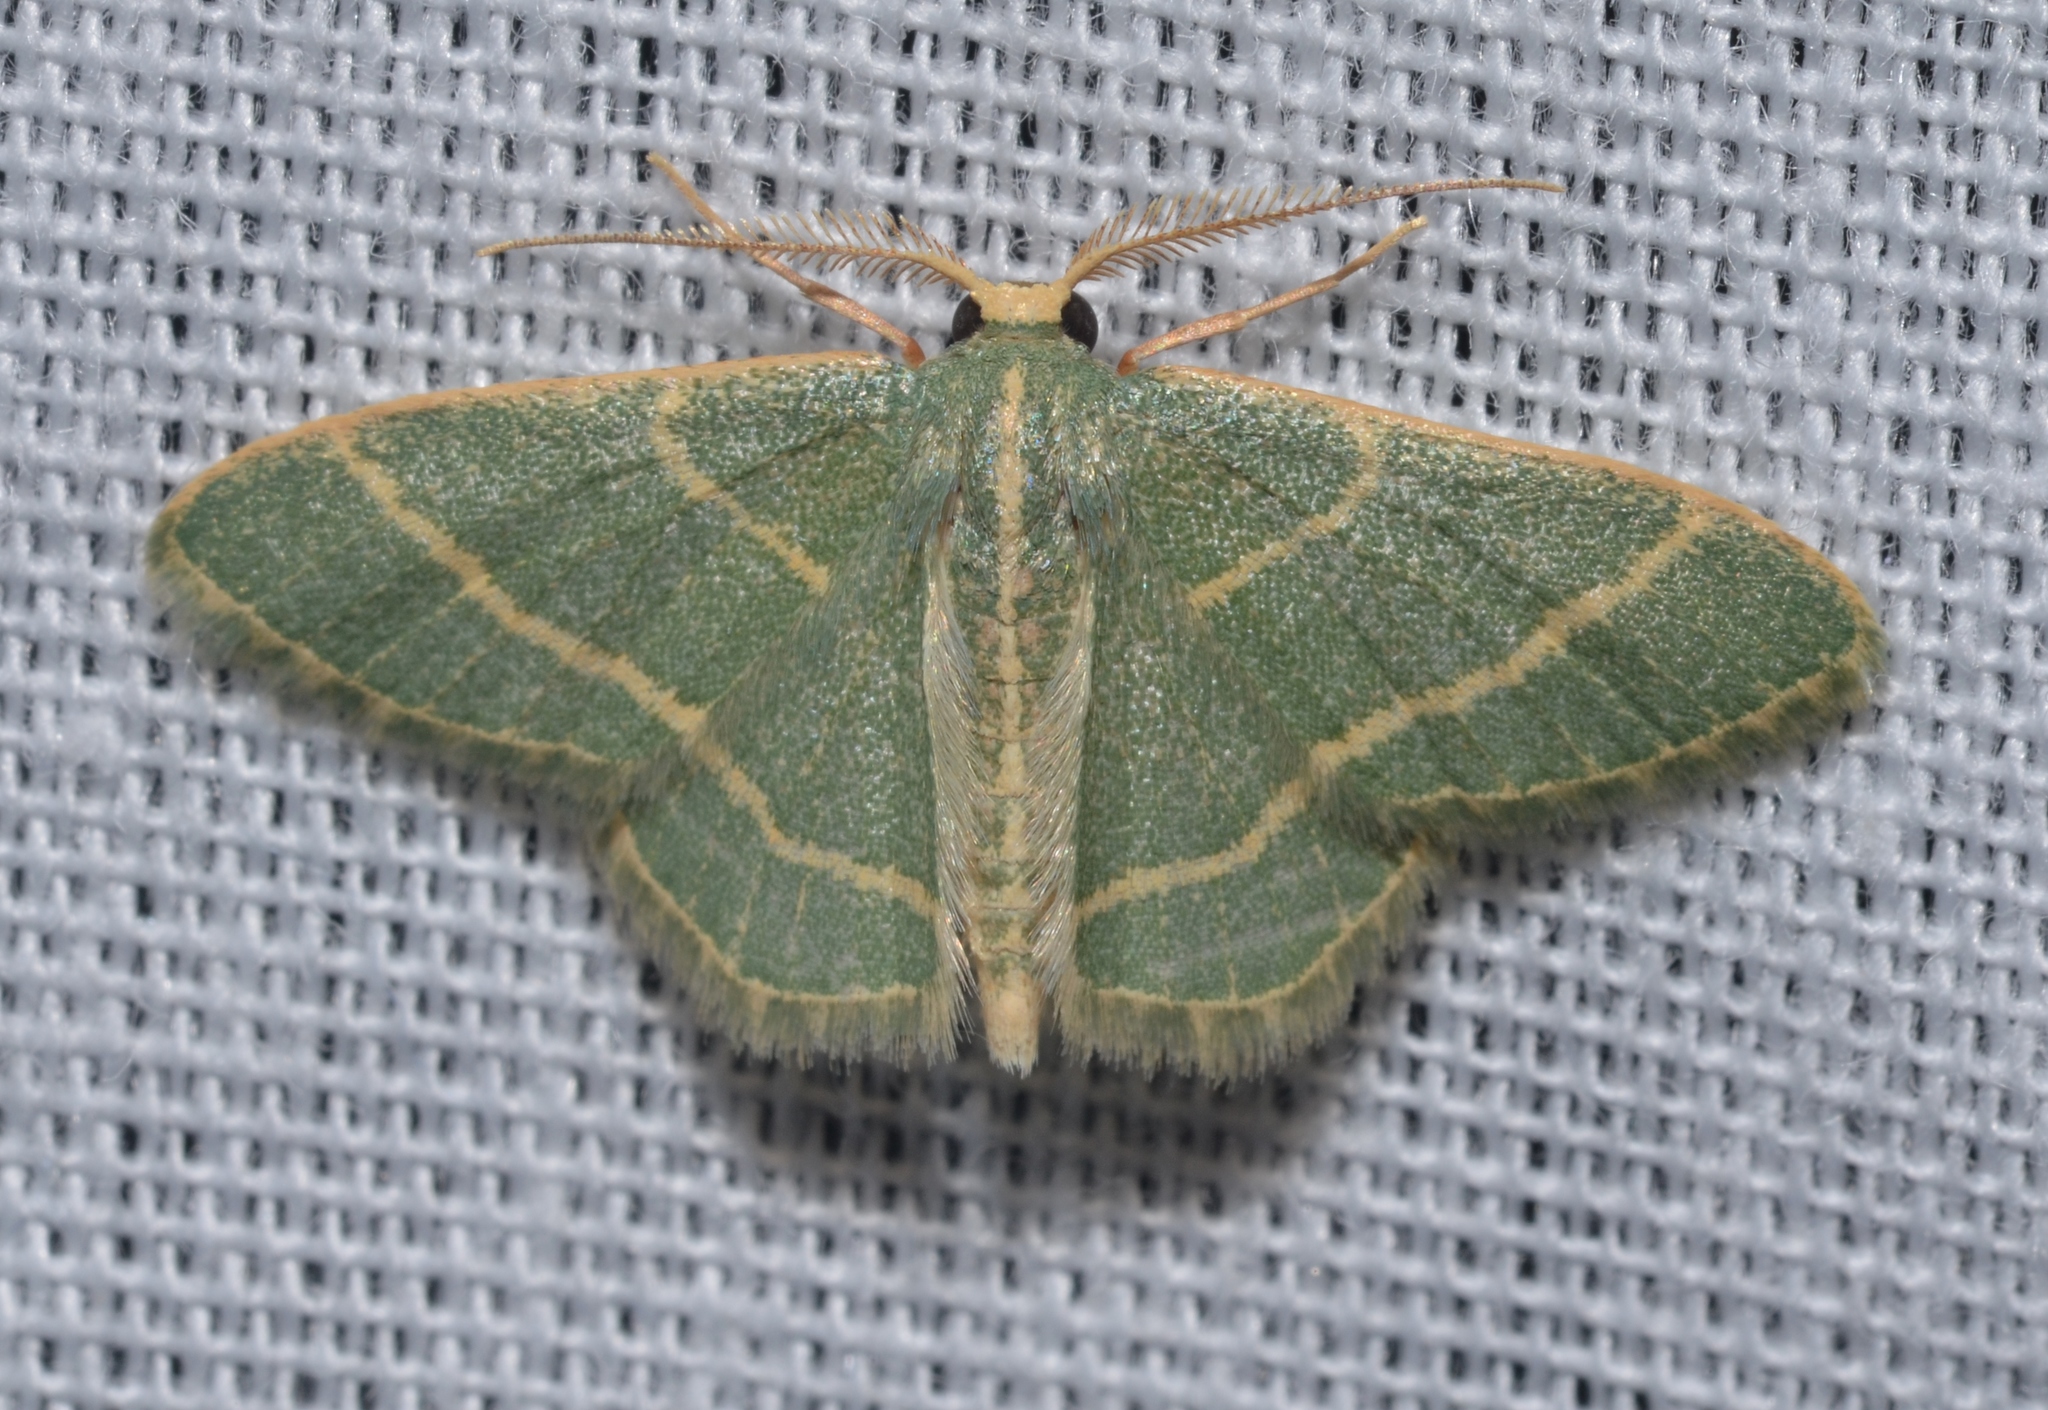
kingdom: Animalia
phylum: Arthropoda
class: Insecta
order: Lepidoptera
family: Geometridae
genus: Chlorochlamys
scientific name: Chlorochlamys chloroleucaria
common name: Blackberry looper
